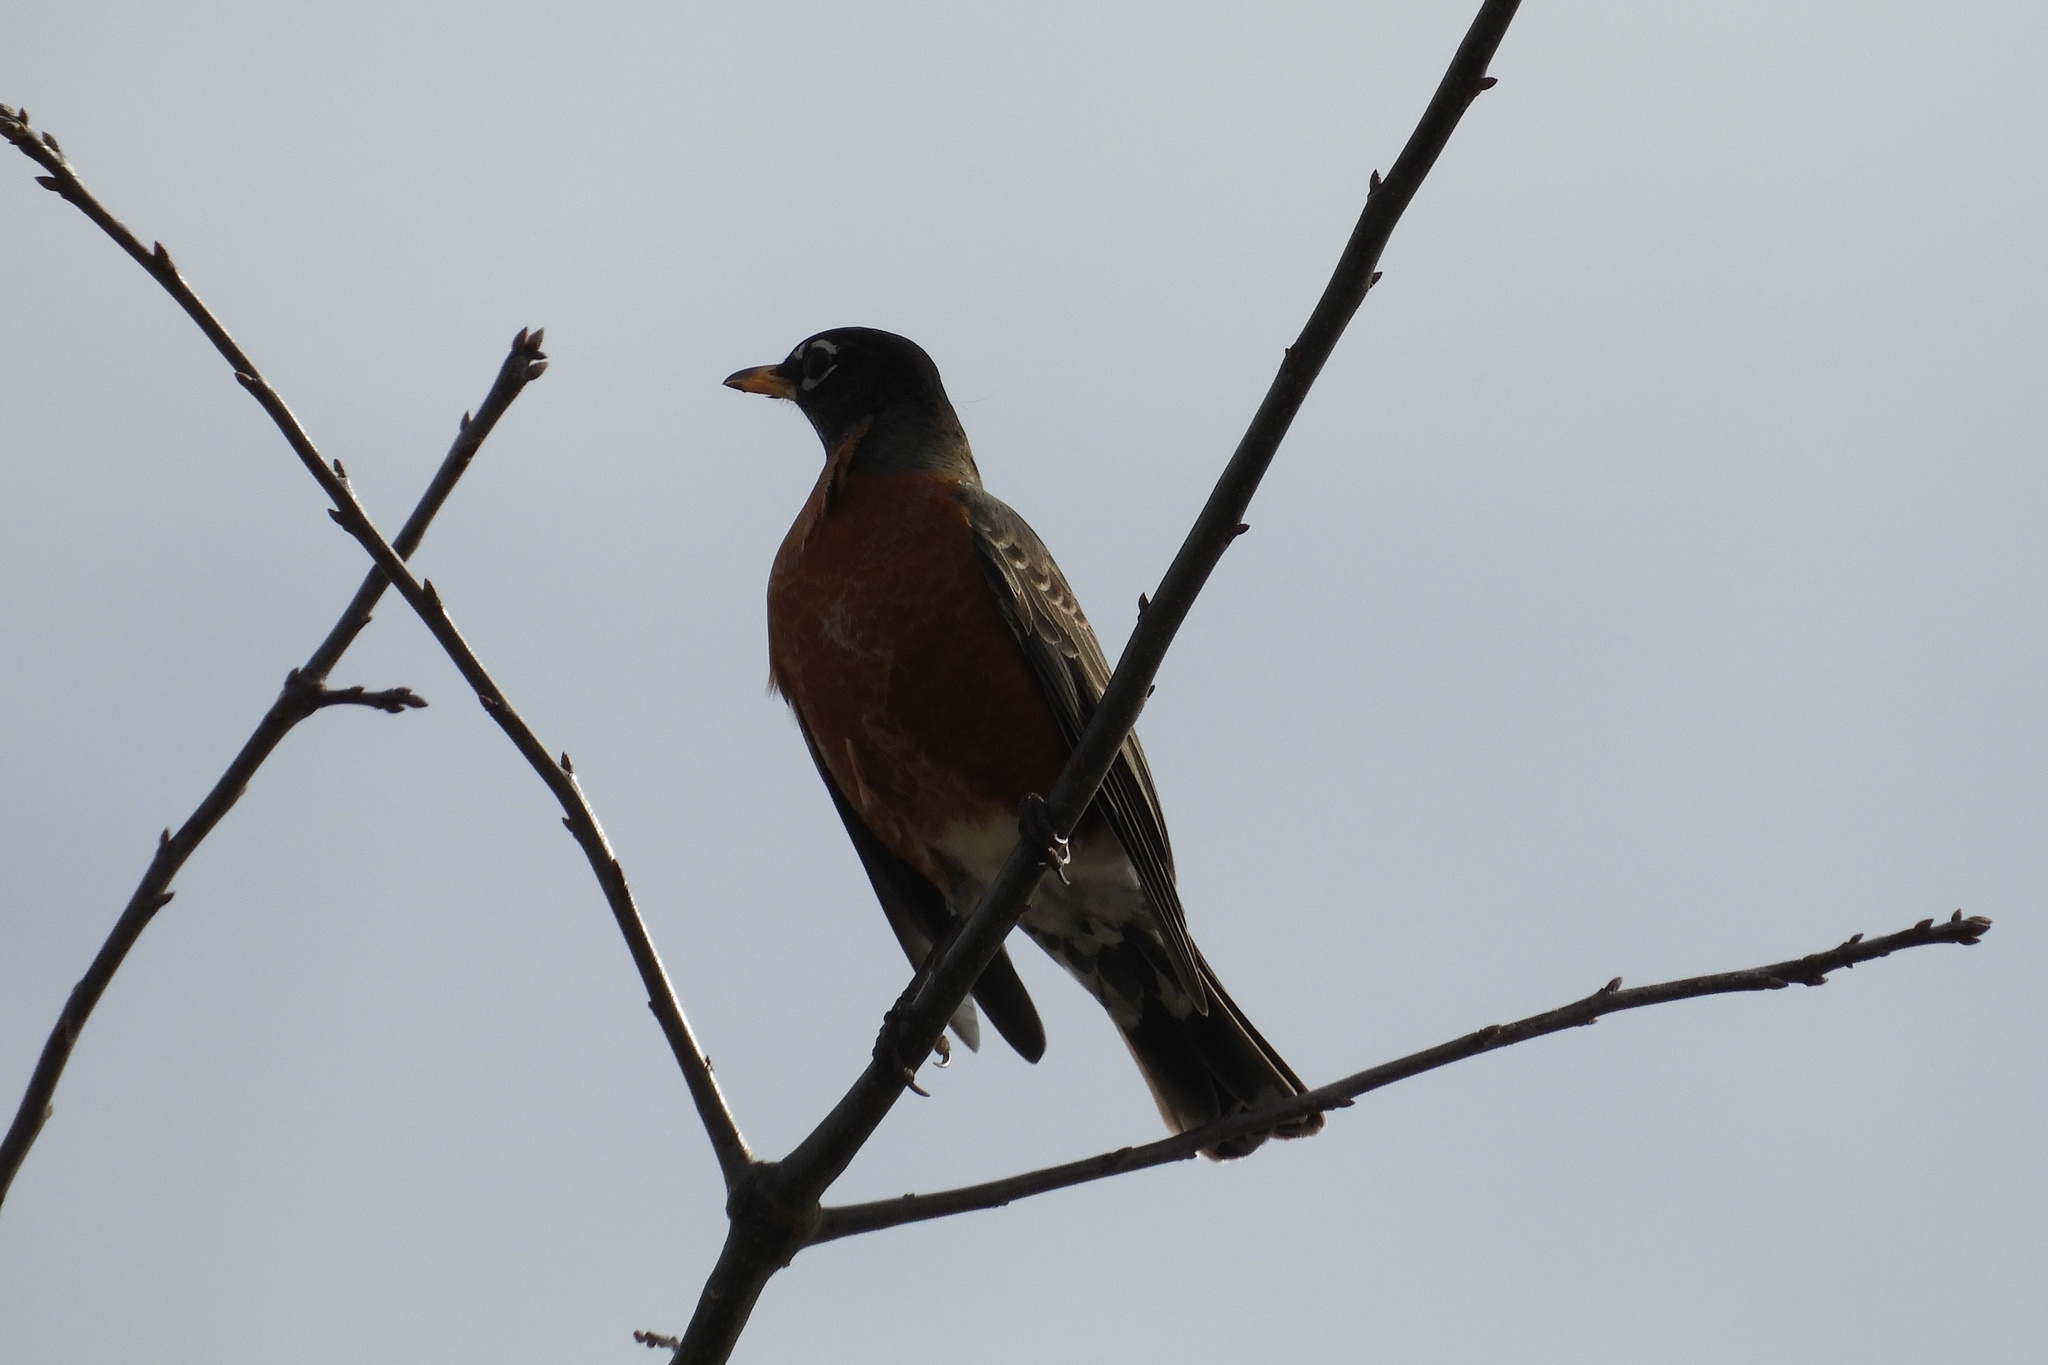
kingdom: Animalia
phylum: Chordata
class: Aves
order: Passeriformes
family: Turdidae
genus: Turdus
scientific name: Turdus migratorius
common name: American robin
